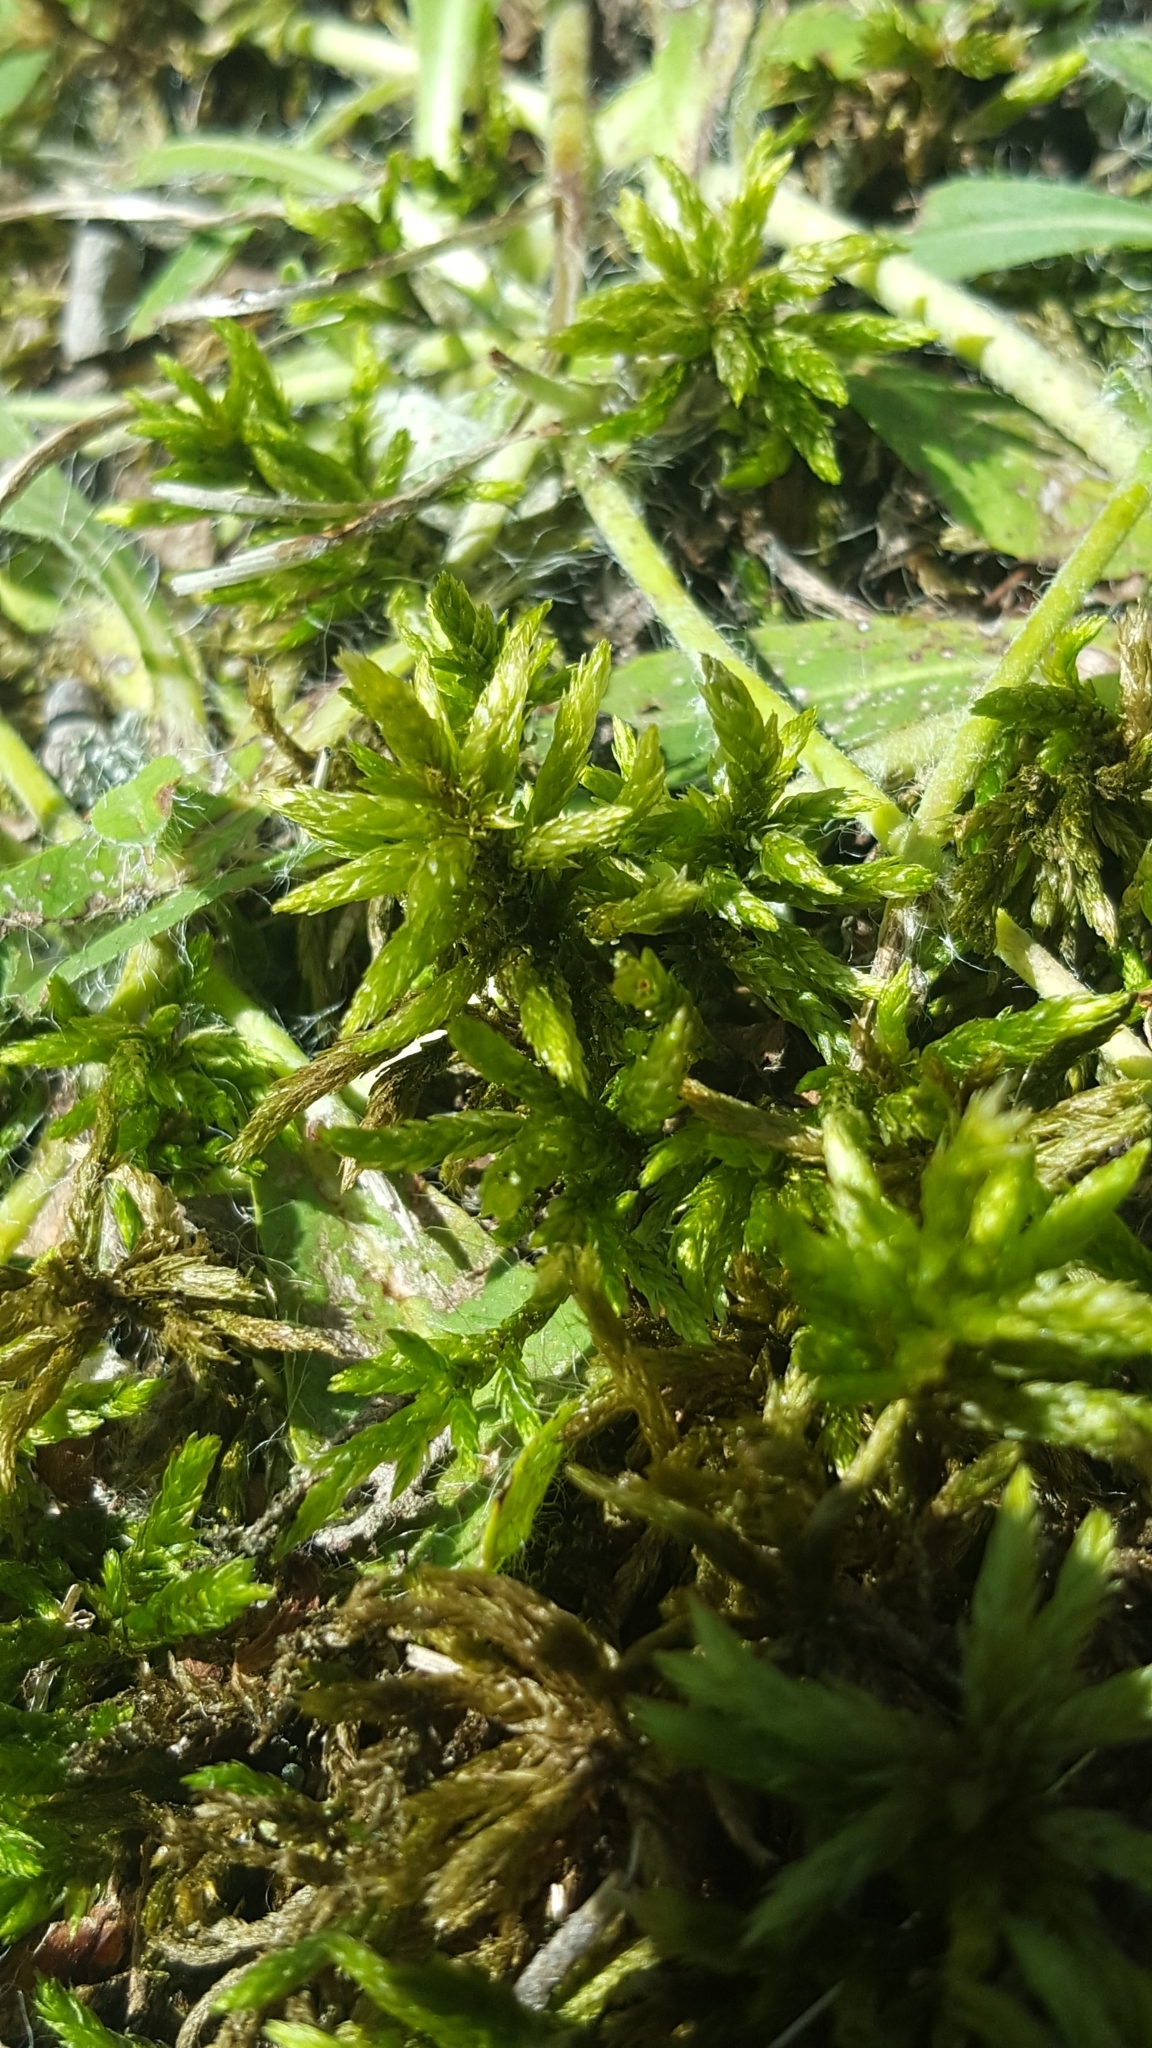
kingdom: Plantae
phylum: Bryophyta
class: Bryopsida
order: Hypnales
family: Climaciaceae
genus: Climacium
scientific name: Climacium dendroides
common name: Northern tree moss
